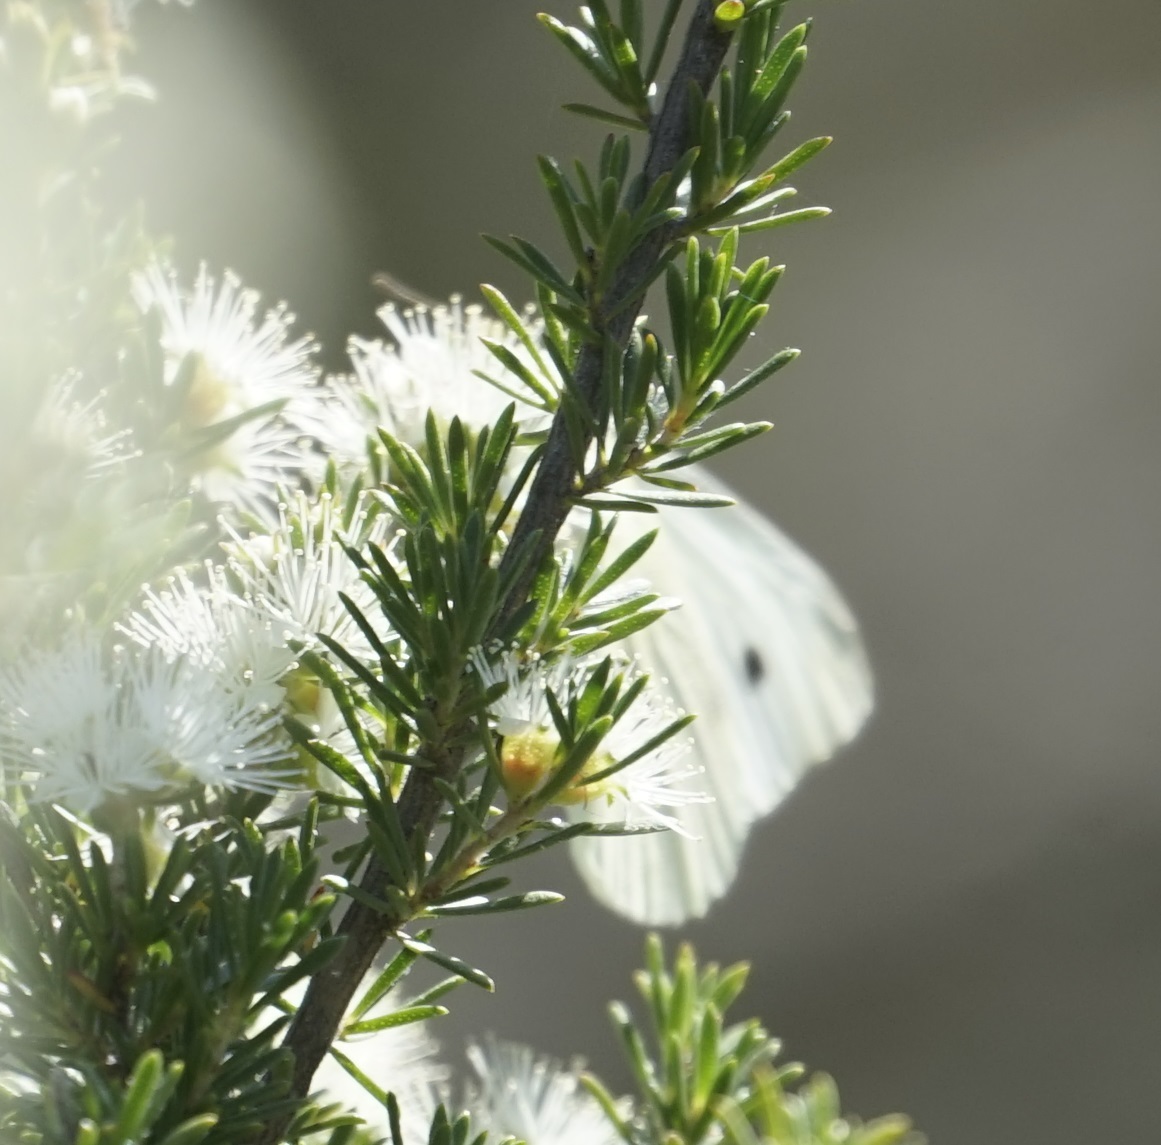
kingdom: Animalia
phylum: Arthropoda
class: Insecta
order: Lepidoptera
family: Pieridae
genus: Pieris
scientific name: Pieris rapae
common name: Small white
